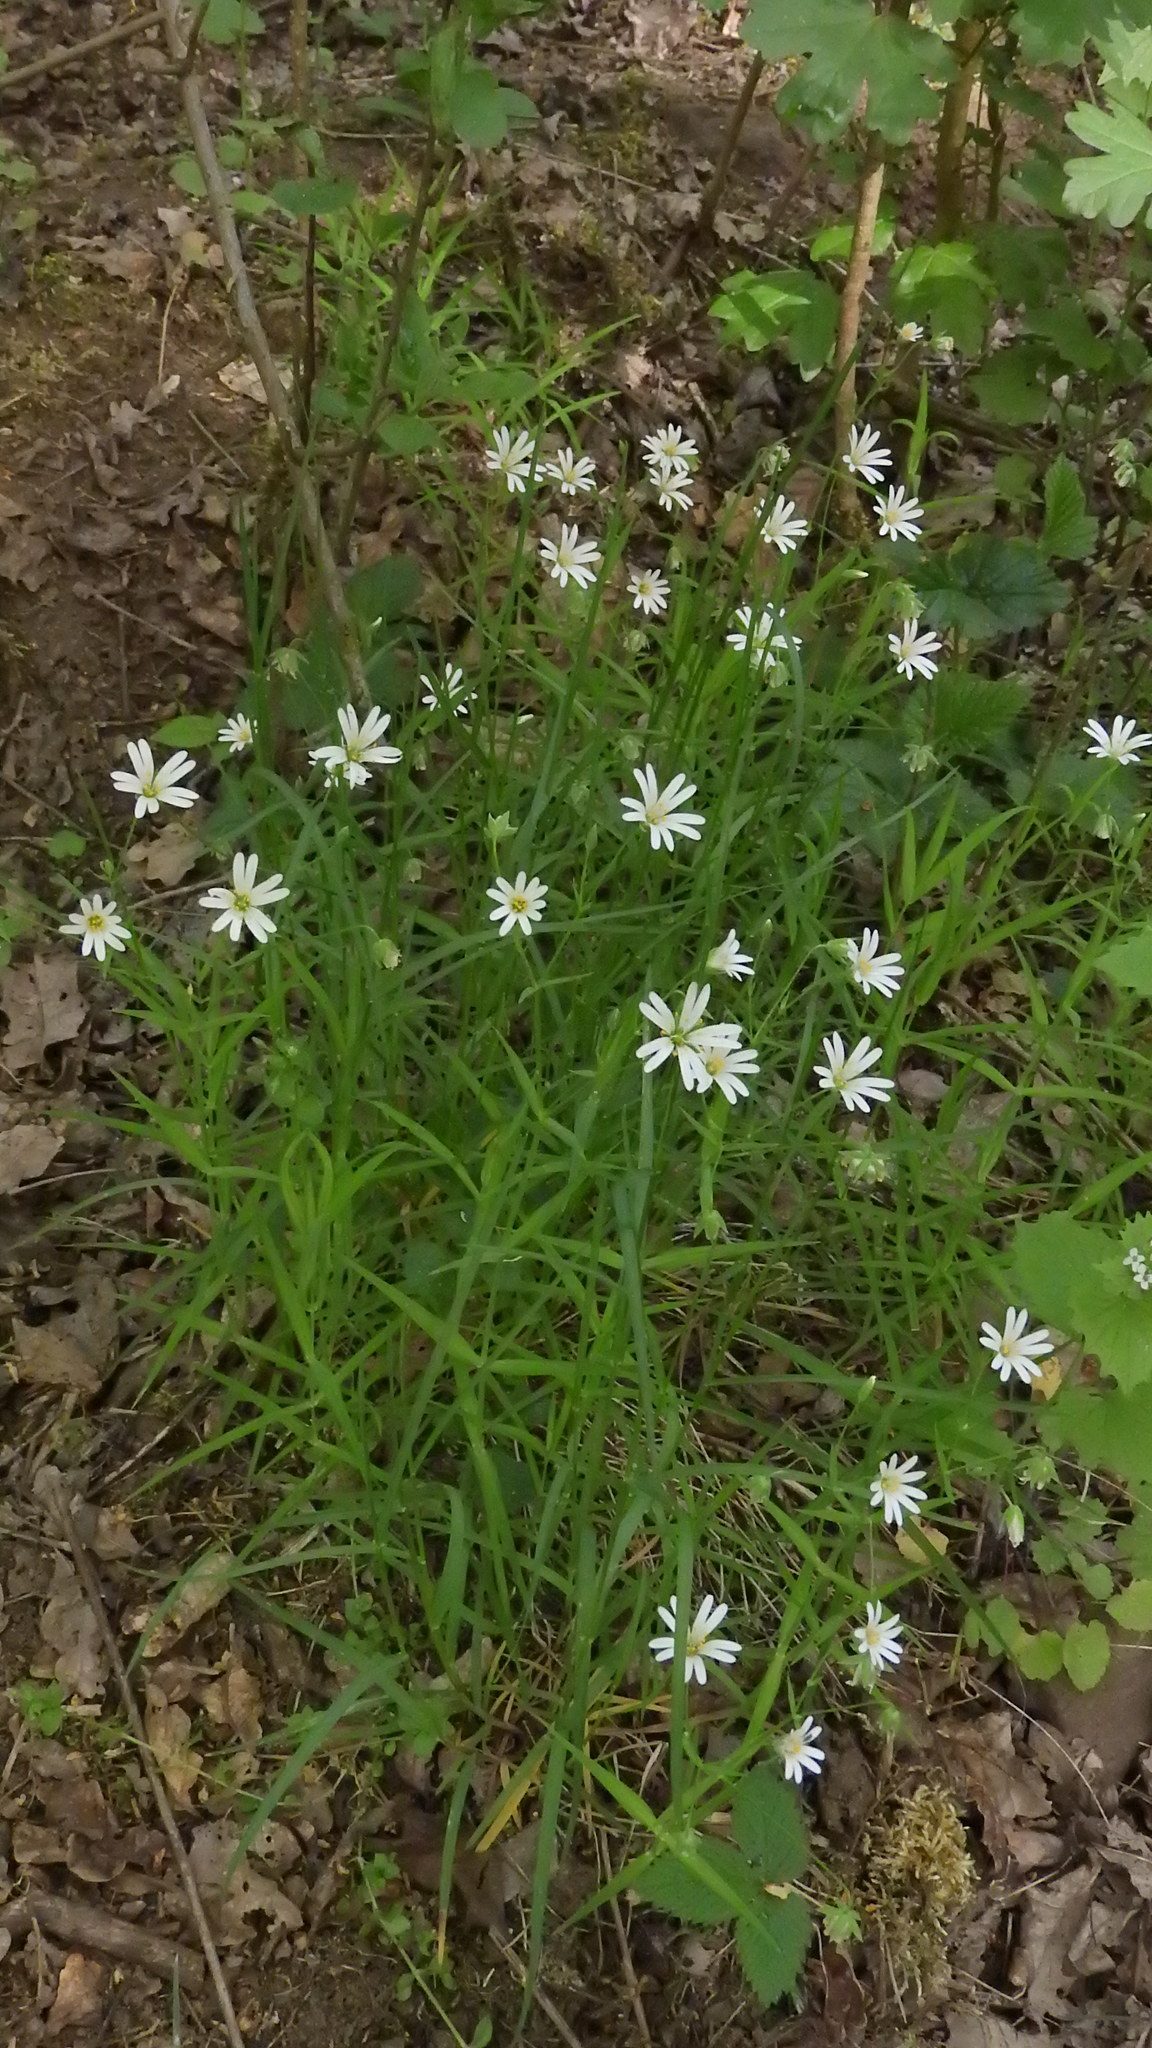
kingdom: Plantae
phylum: Tracheophyta
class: Magnoliopsida
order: Caryophyllales
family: Caryophyllaceae
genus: Rabelera
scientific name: Rabelera holostea
